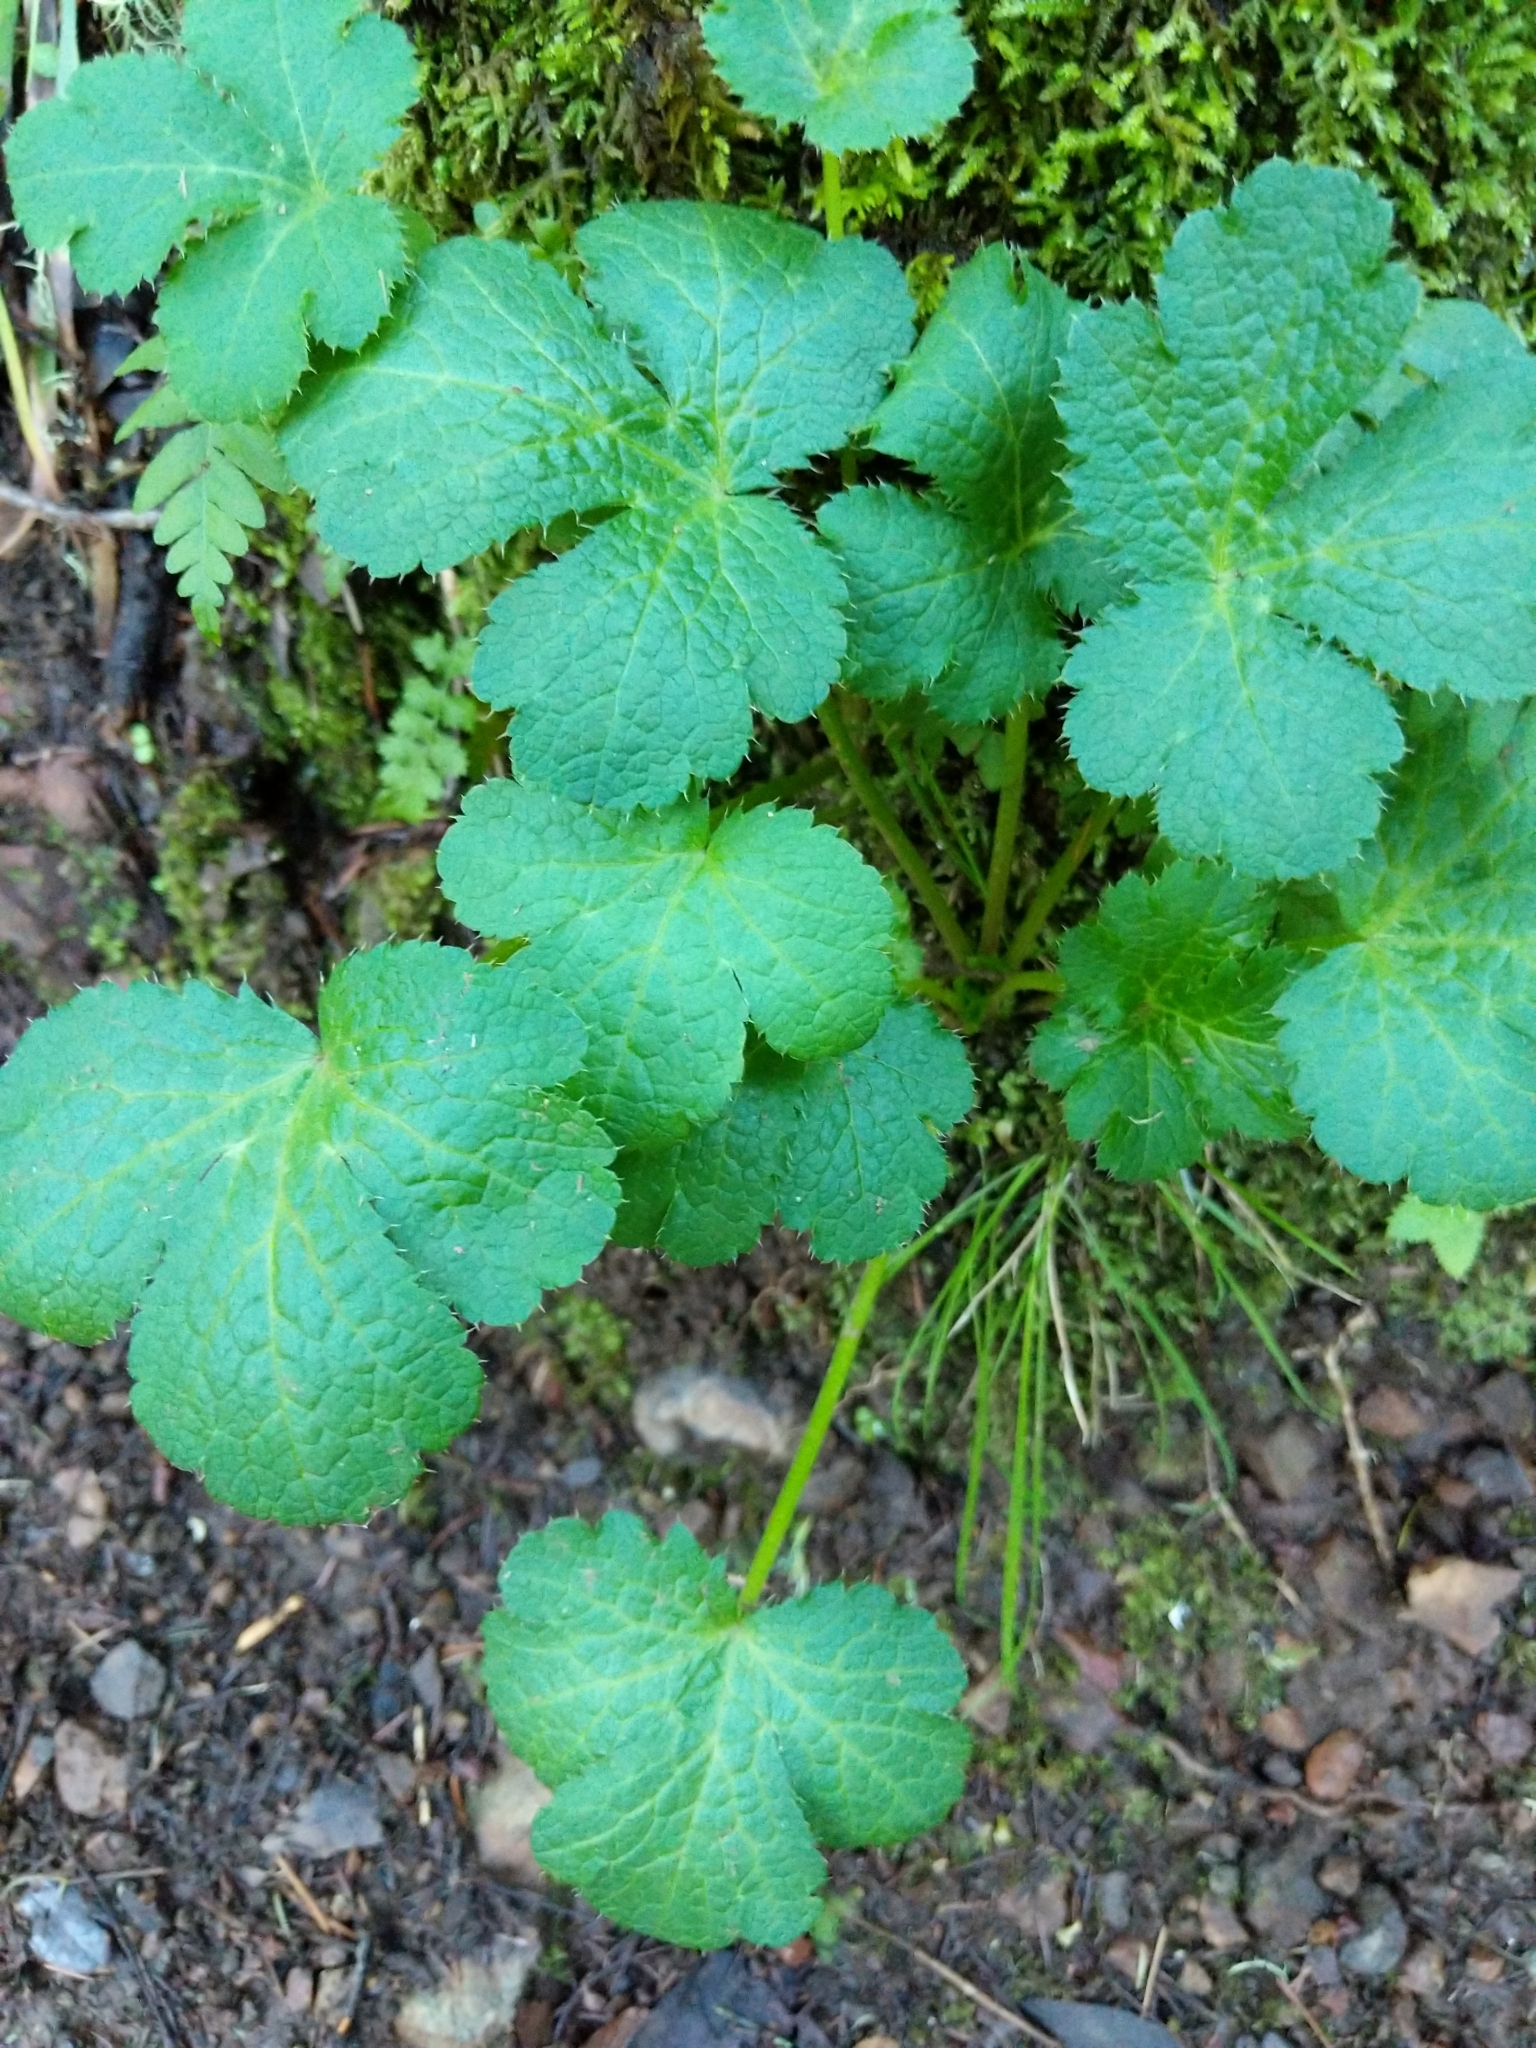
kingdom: Plantae
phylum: Tracheophyta
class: Magnoliopsida
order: Apiales
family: Apiaceae
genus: Sanicula
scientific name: Sanicula crassicaulis
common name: Western snakeroot
